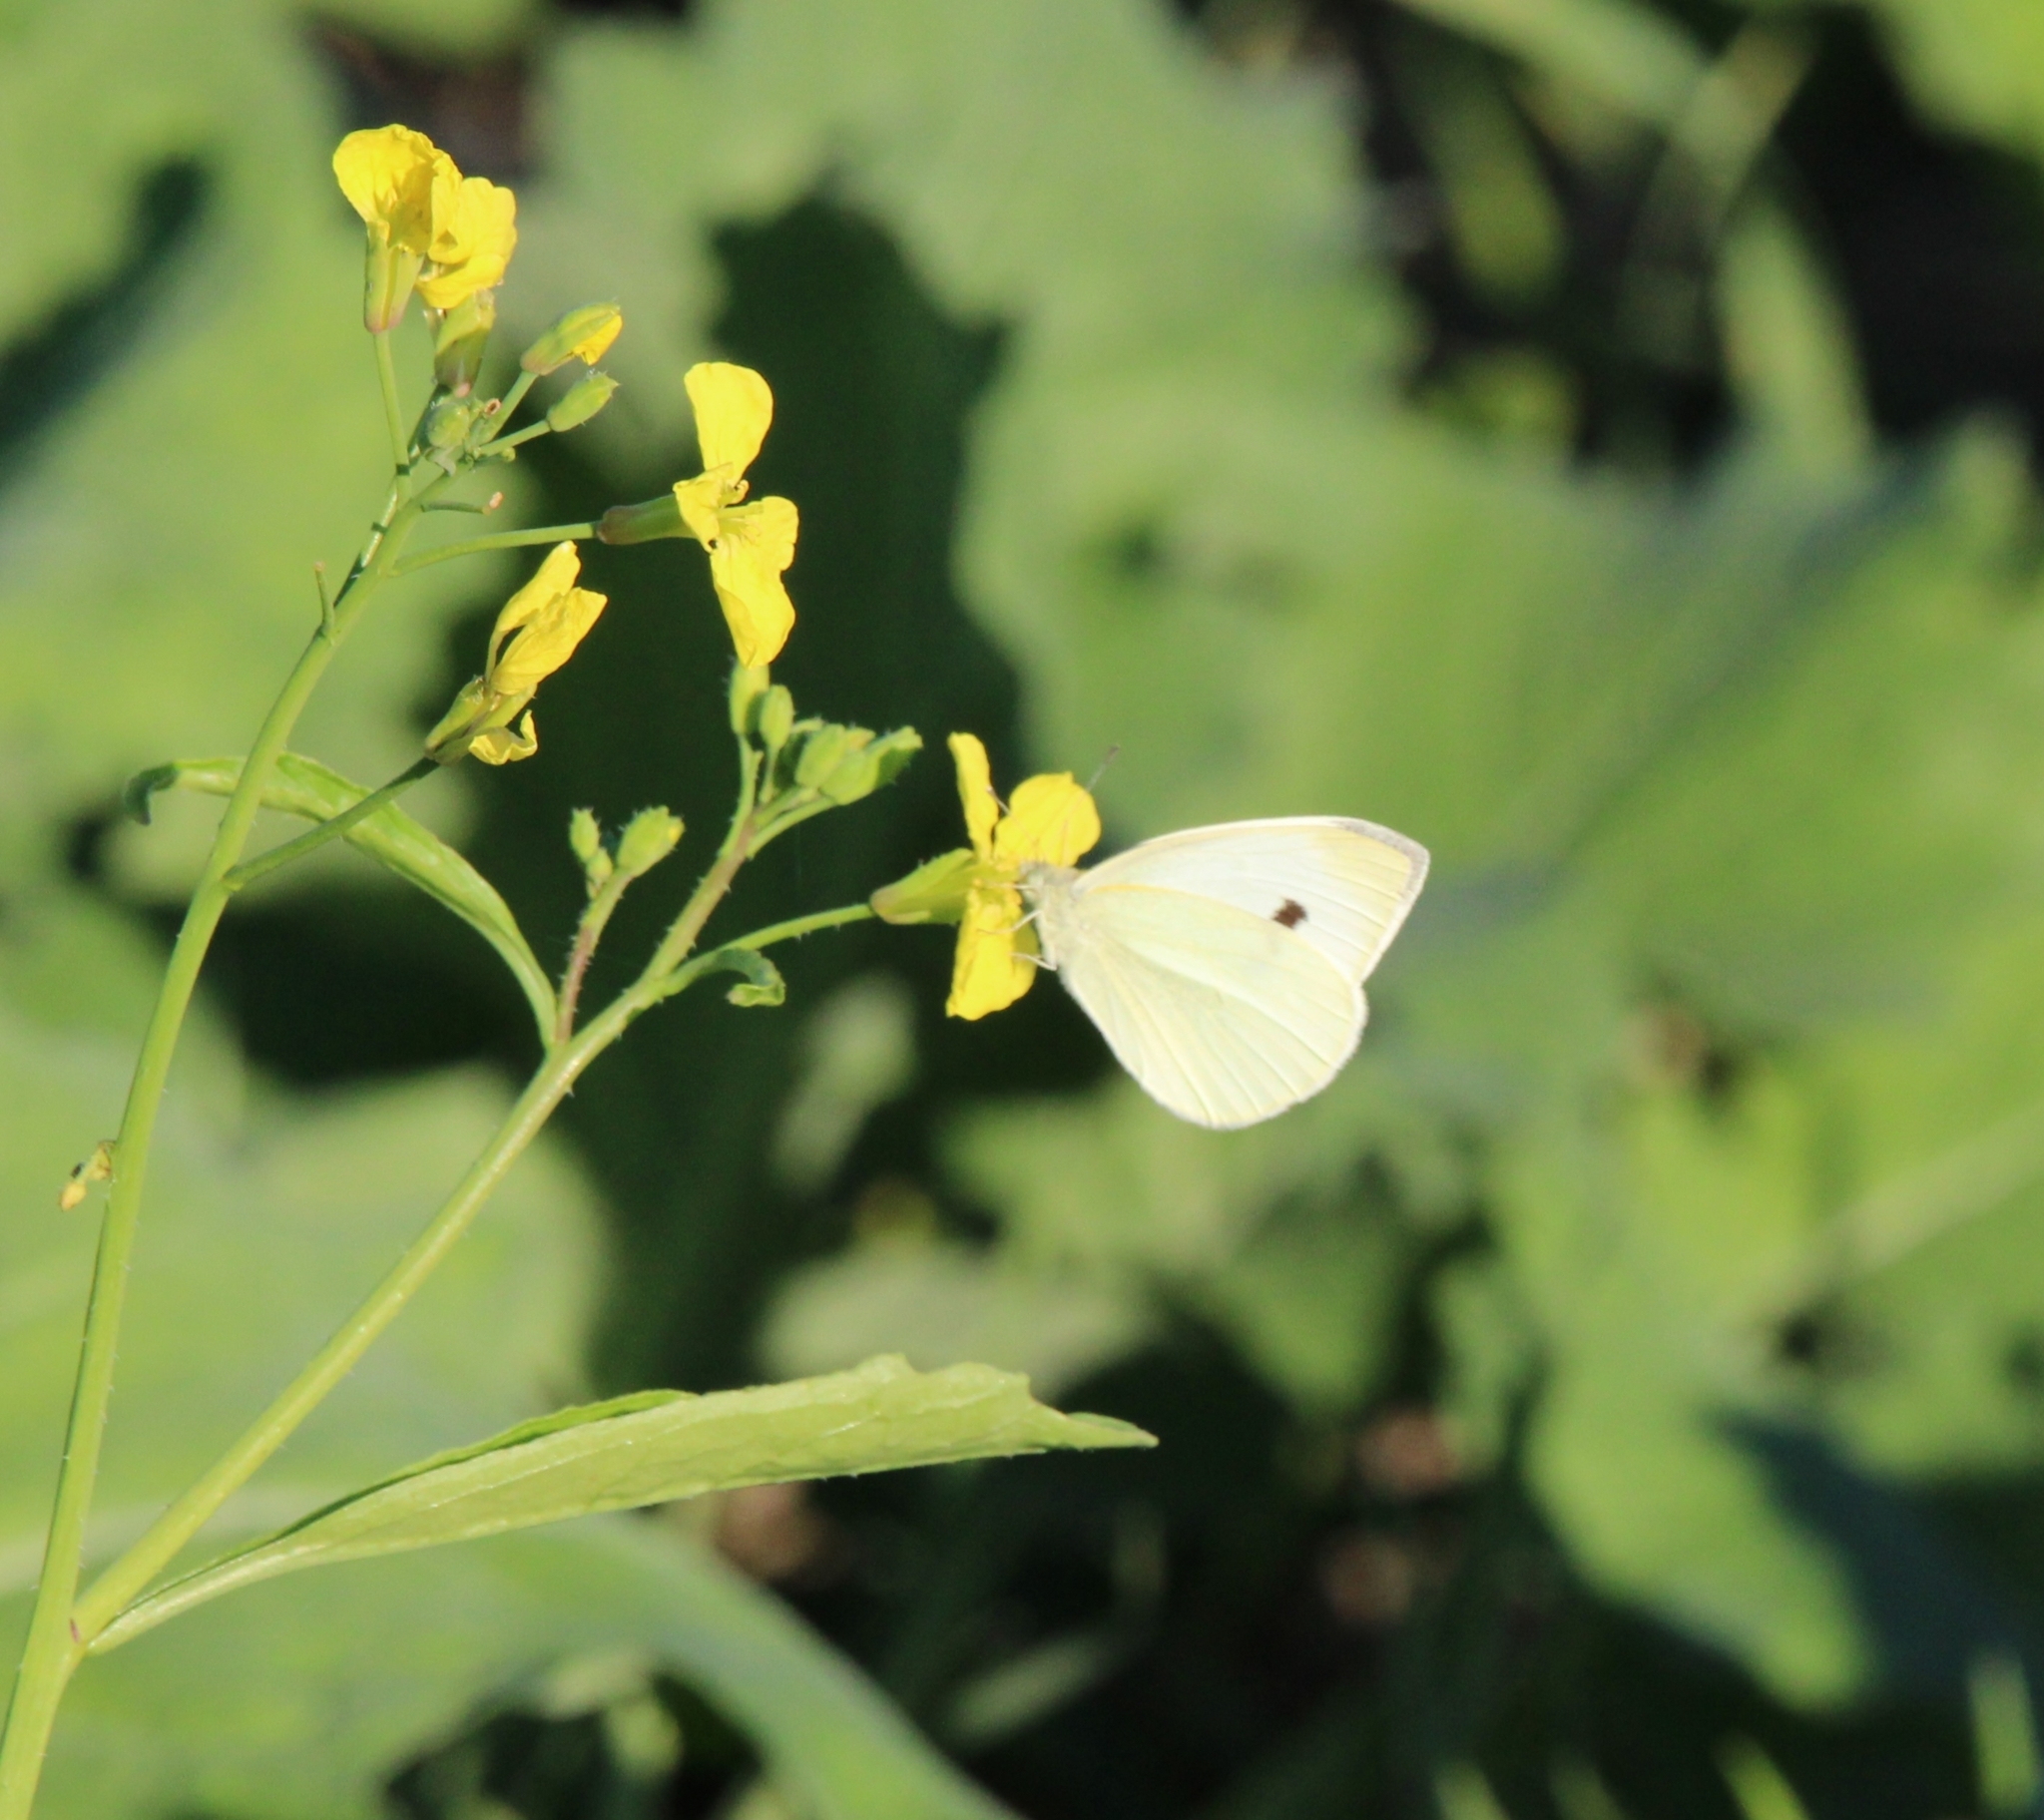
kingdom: Animalia
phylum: Arthropoda
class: Insecta
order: Lepidoptera
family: Pieridae
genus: Pieris
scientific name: Pieris rapae
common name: Small white
